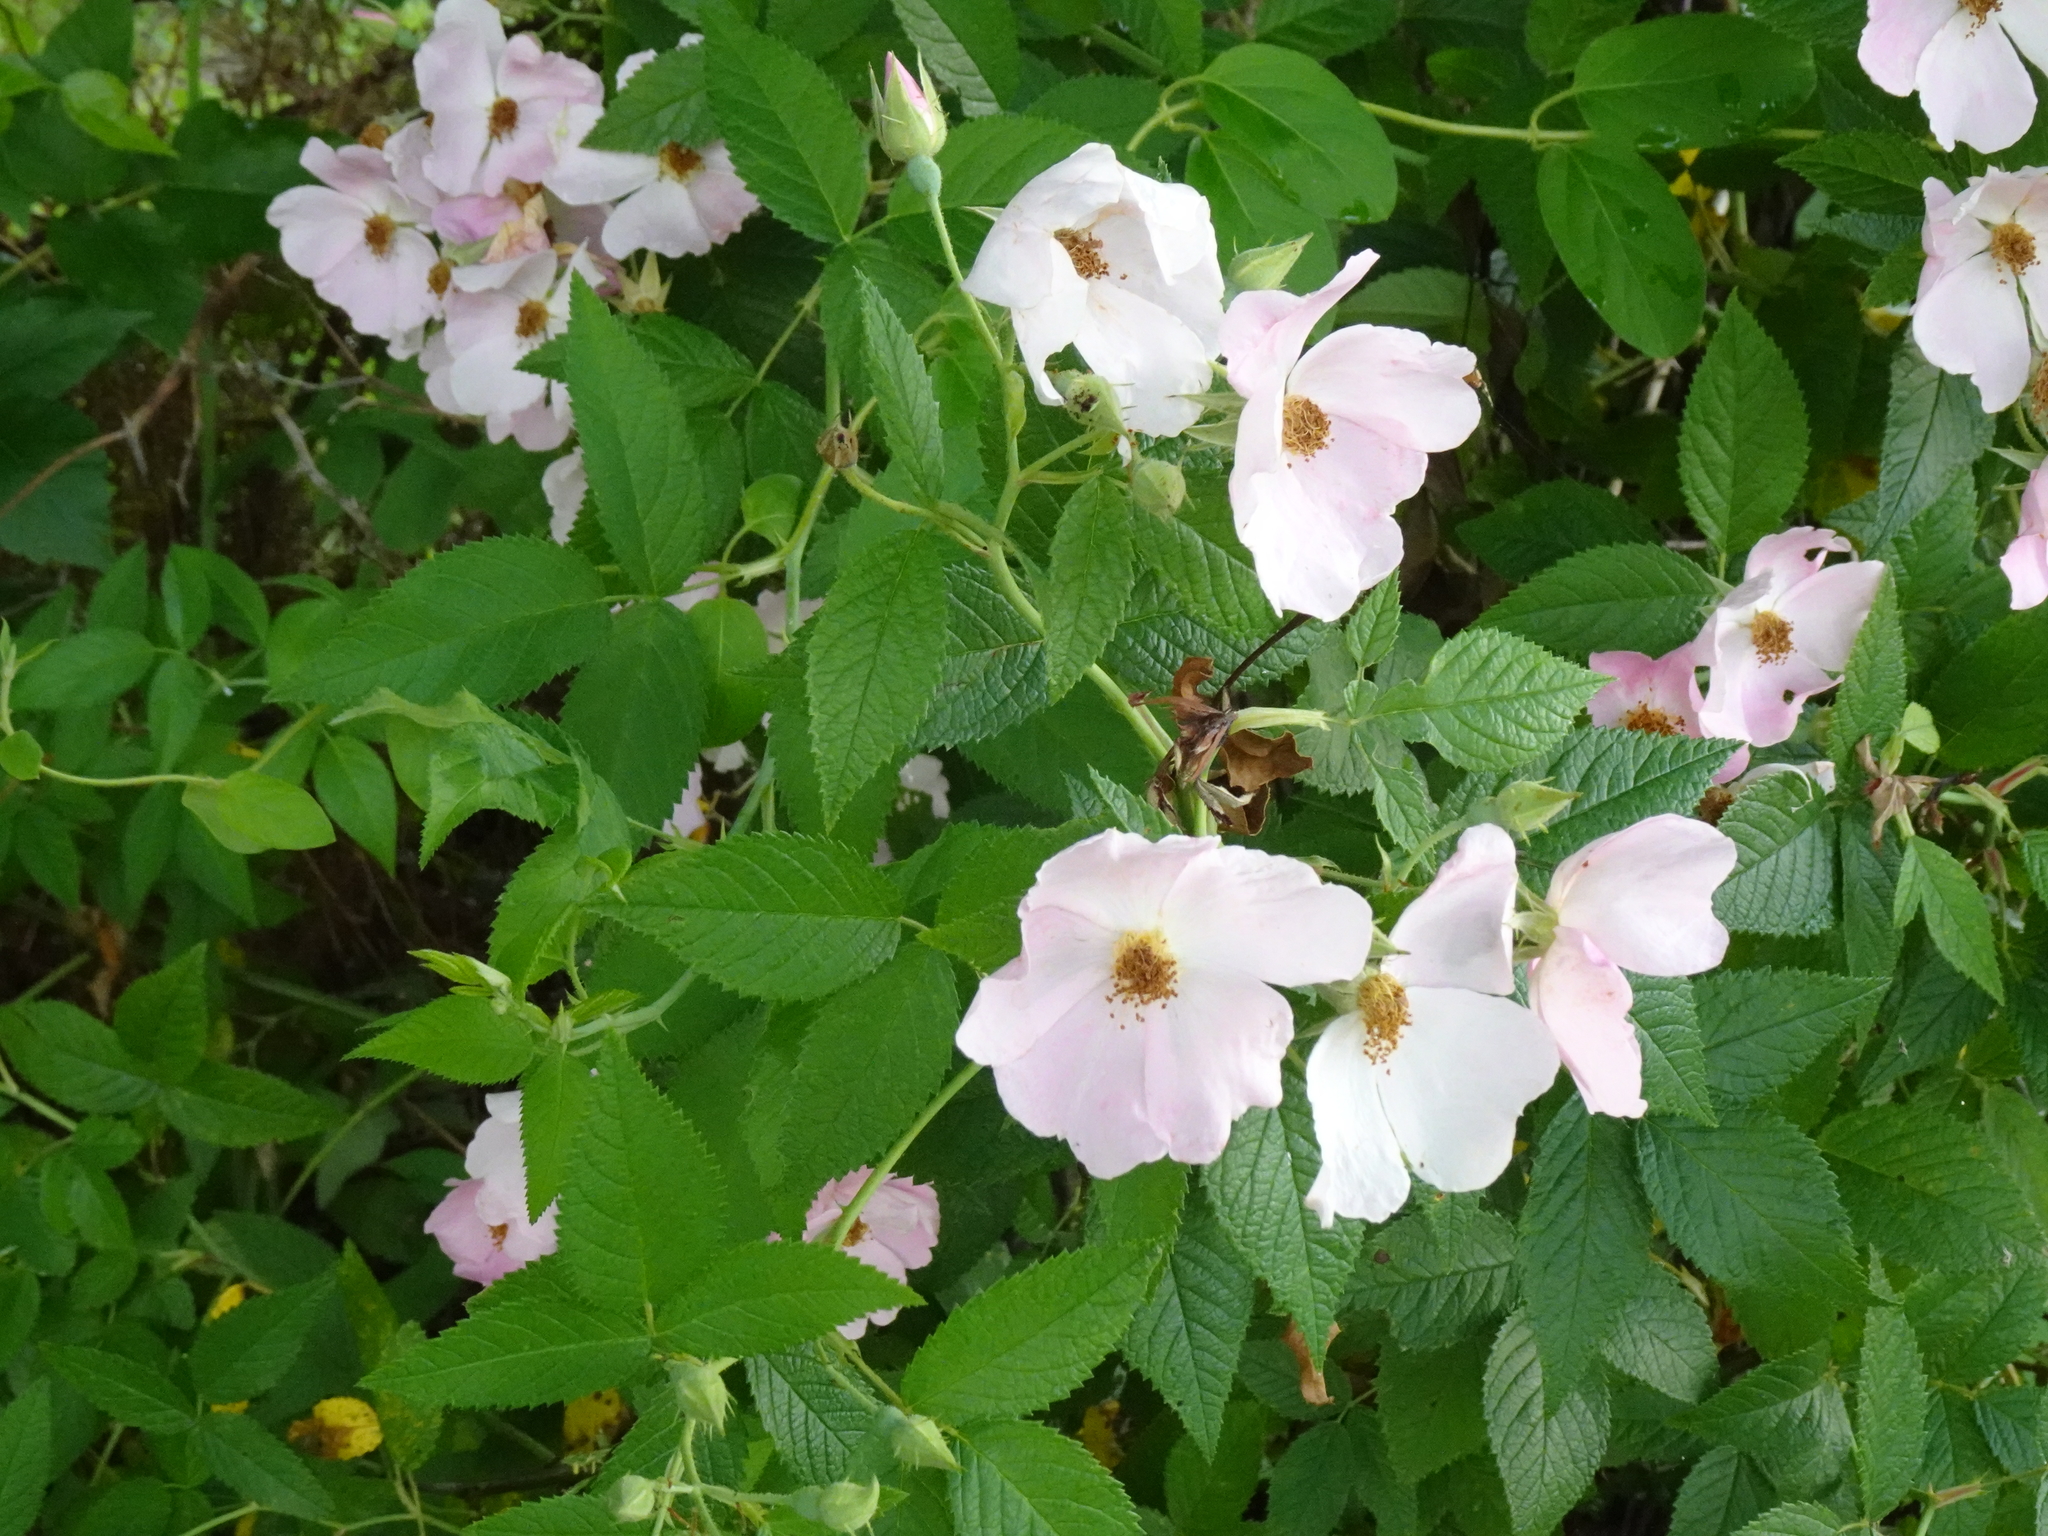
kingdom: Plantae
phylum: Tracheophyta
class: Magnoliopsida
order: Rosales
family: Rosaceae
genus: Rosa
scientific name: Rosa setigera
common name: Prairie rose
